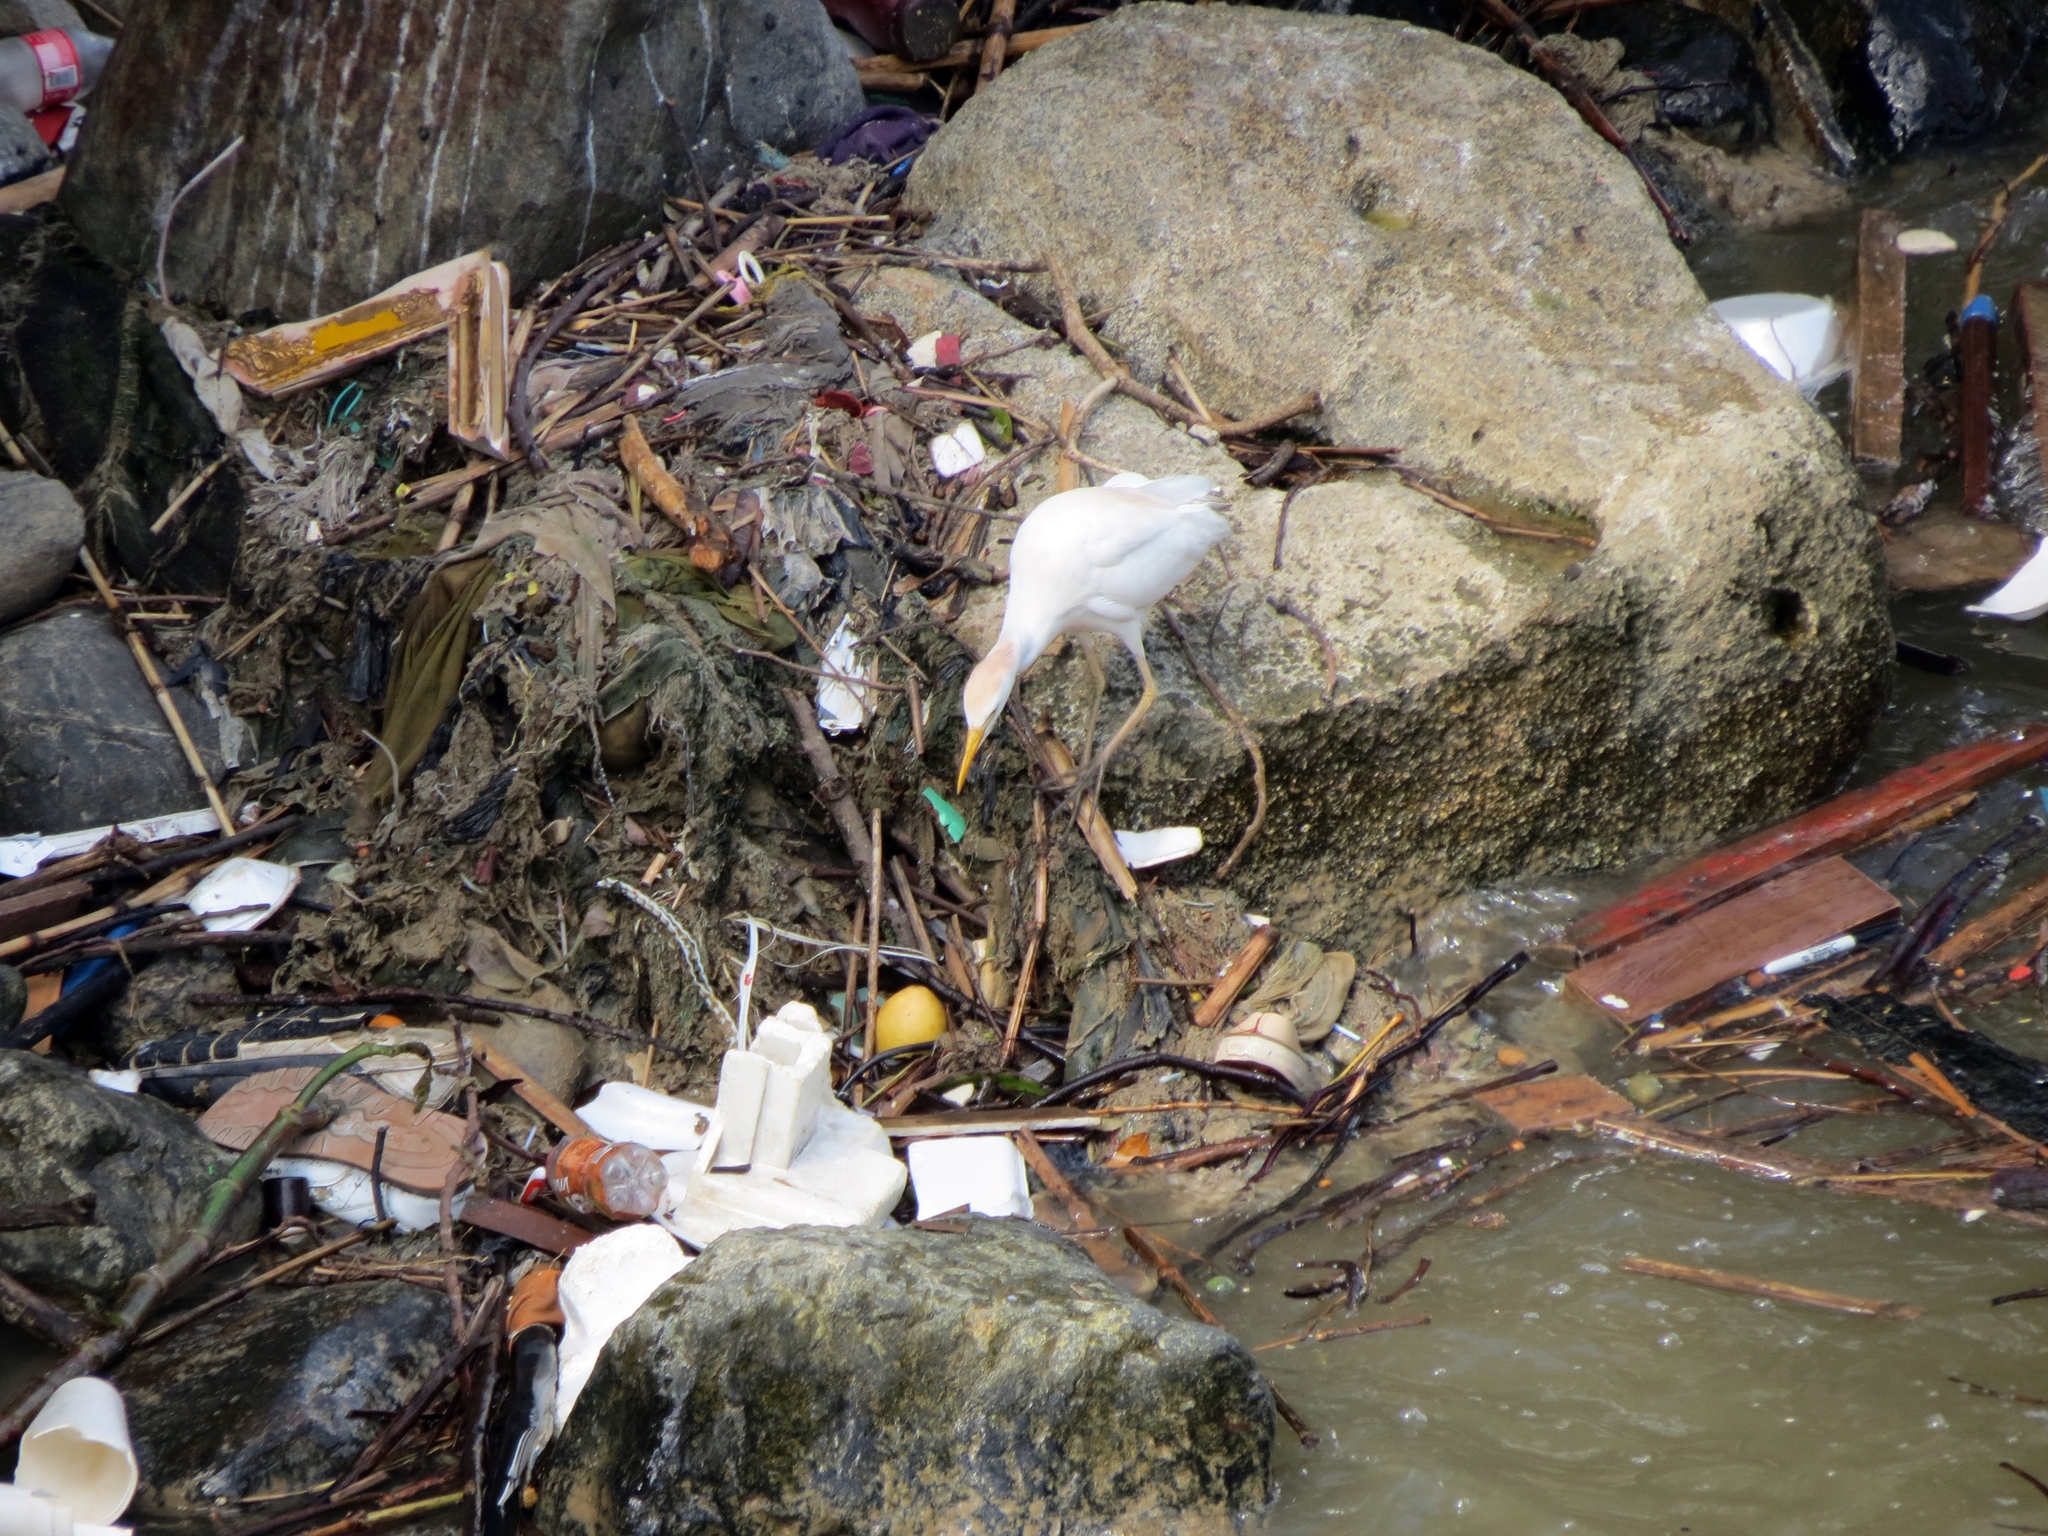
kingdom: Animalia
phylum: Chordata
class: Aves
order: Pelecaniformes
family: Ardeidae
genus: Bubulcus
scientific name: Bubulcus ibis
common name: Cattle egret
